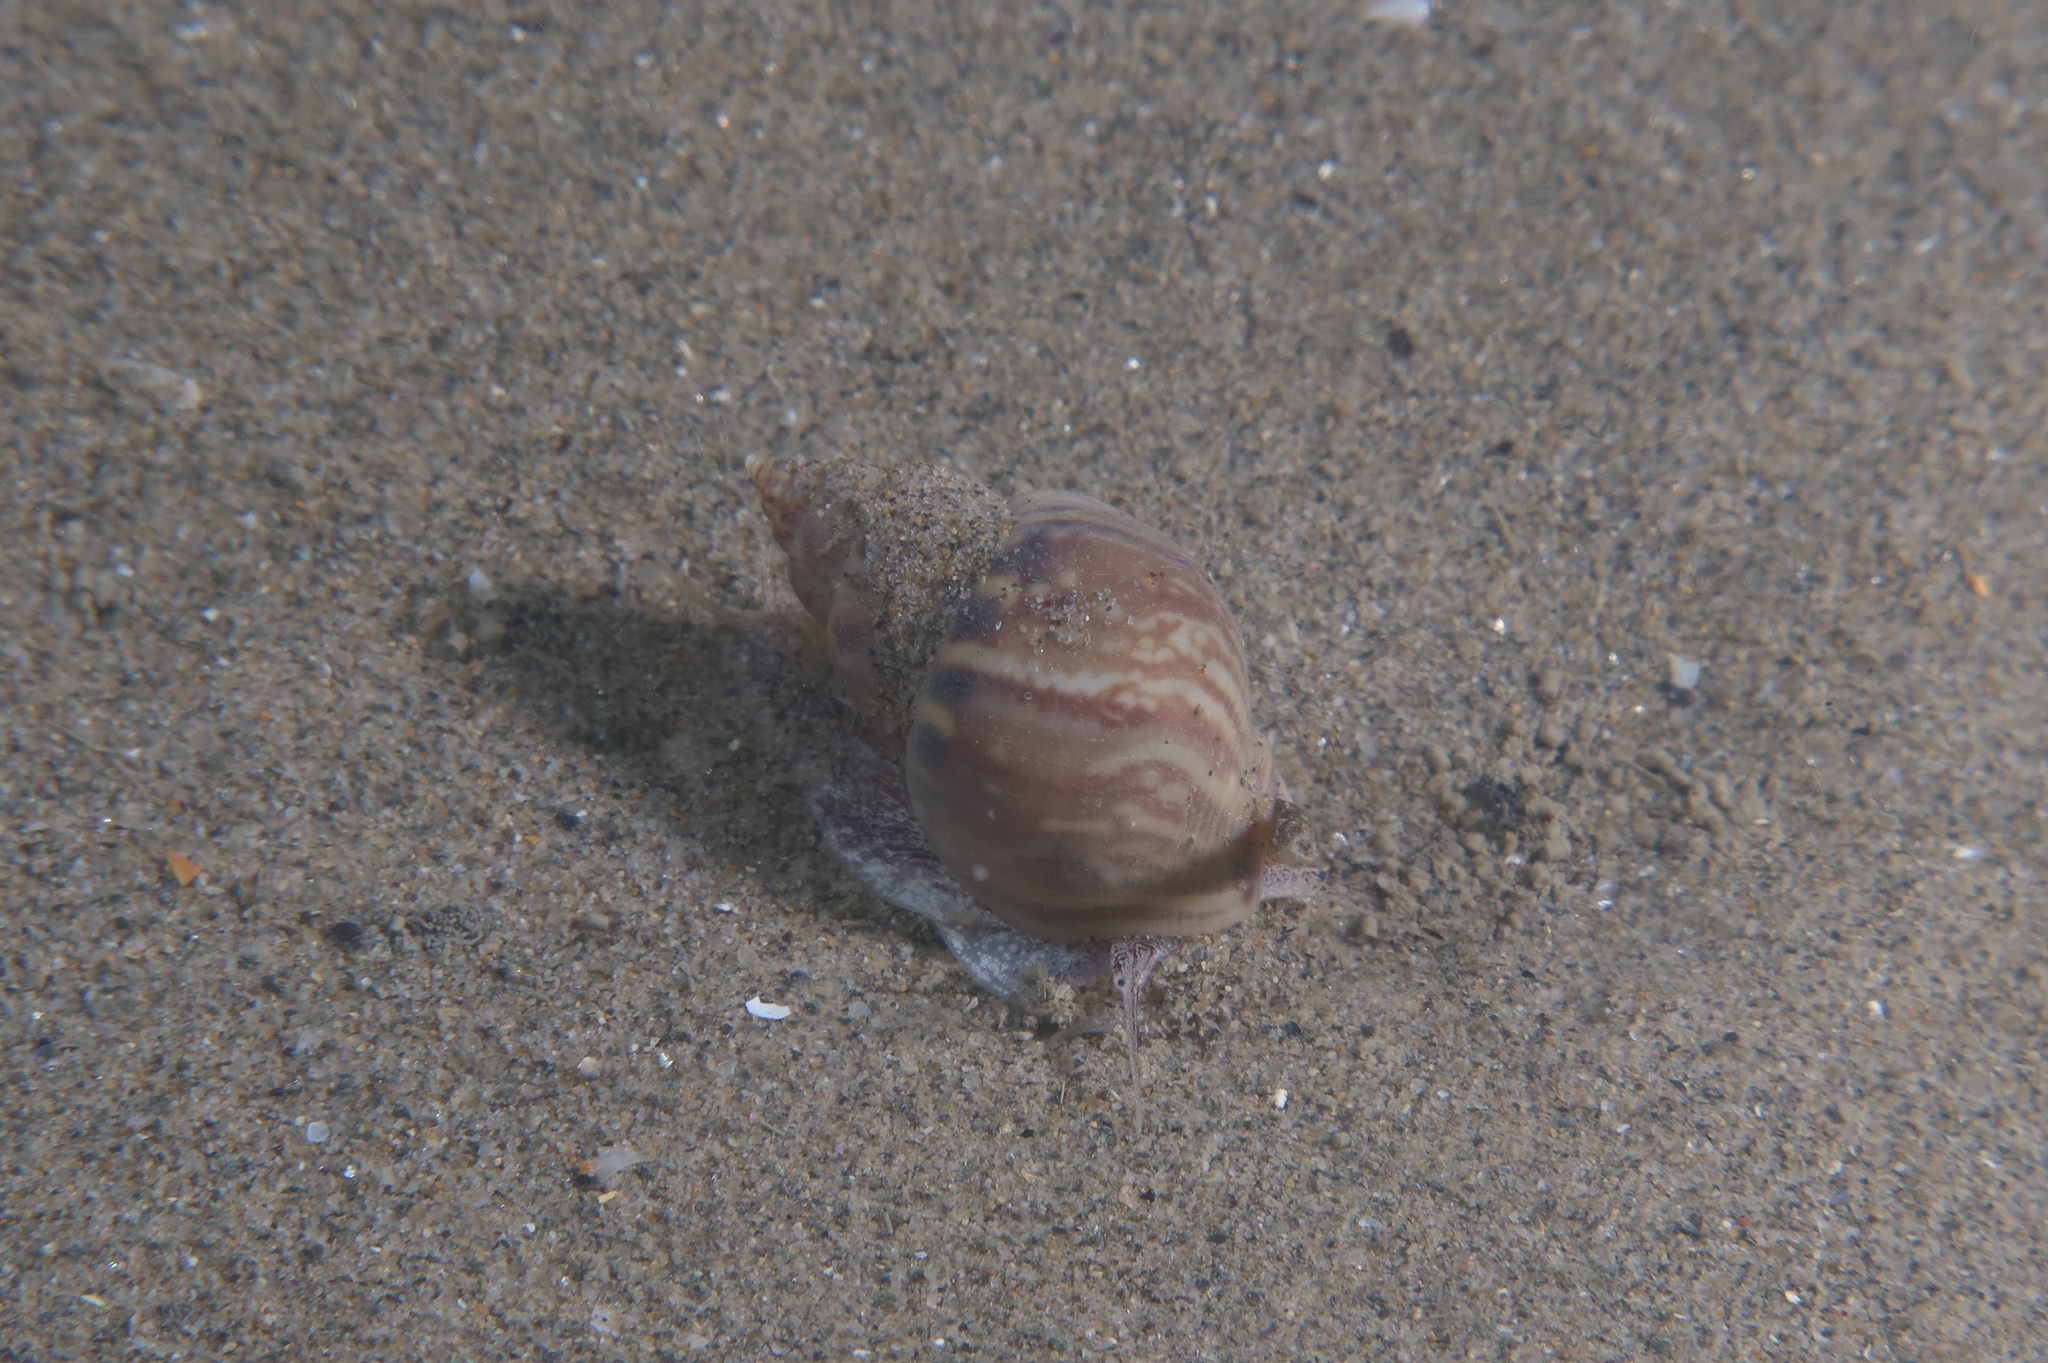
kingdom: Animalia
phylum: Mollusca
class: Gastropoda
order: Neogastropoda
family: Nassariidae
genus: Tritia
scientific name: Tritia mutabilis
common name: Mutable nassa
